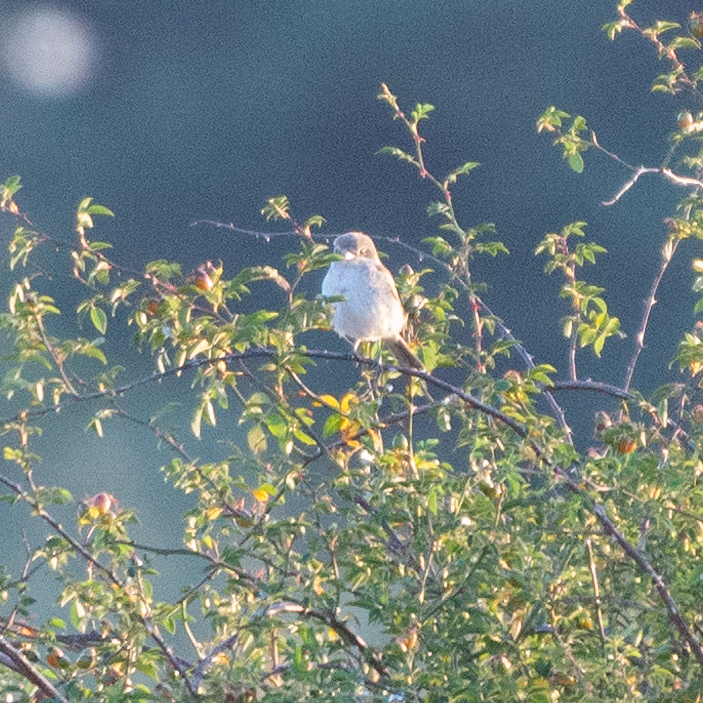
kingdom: Animalia
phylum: Chordata
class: Aves
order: Passeriformes
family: Laniidae
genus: Lanius
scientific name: Lanius senator
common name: Woodchat shrike
